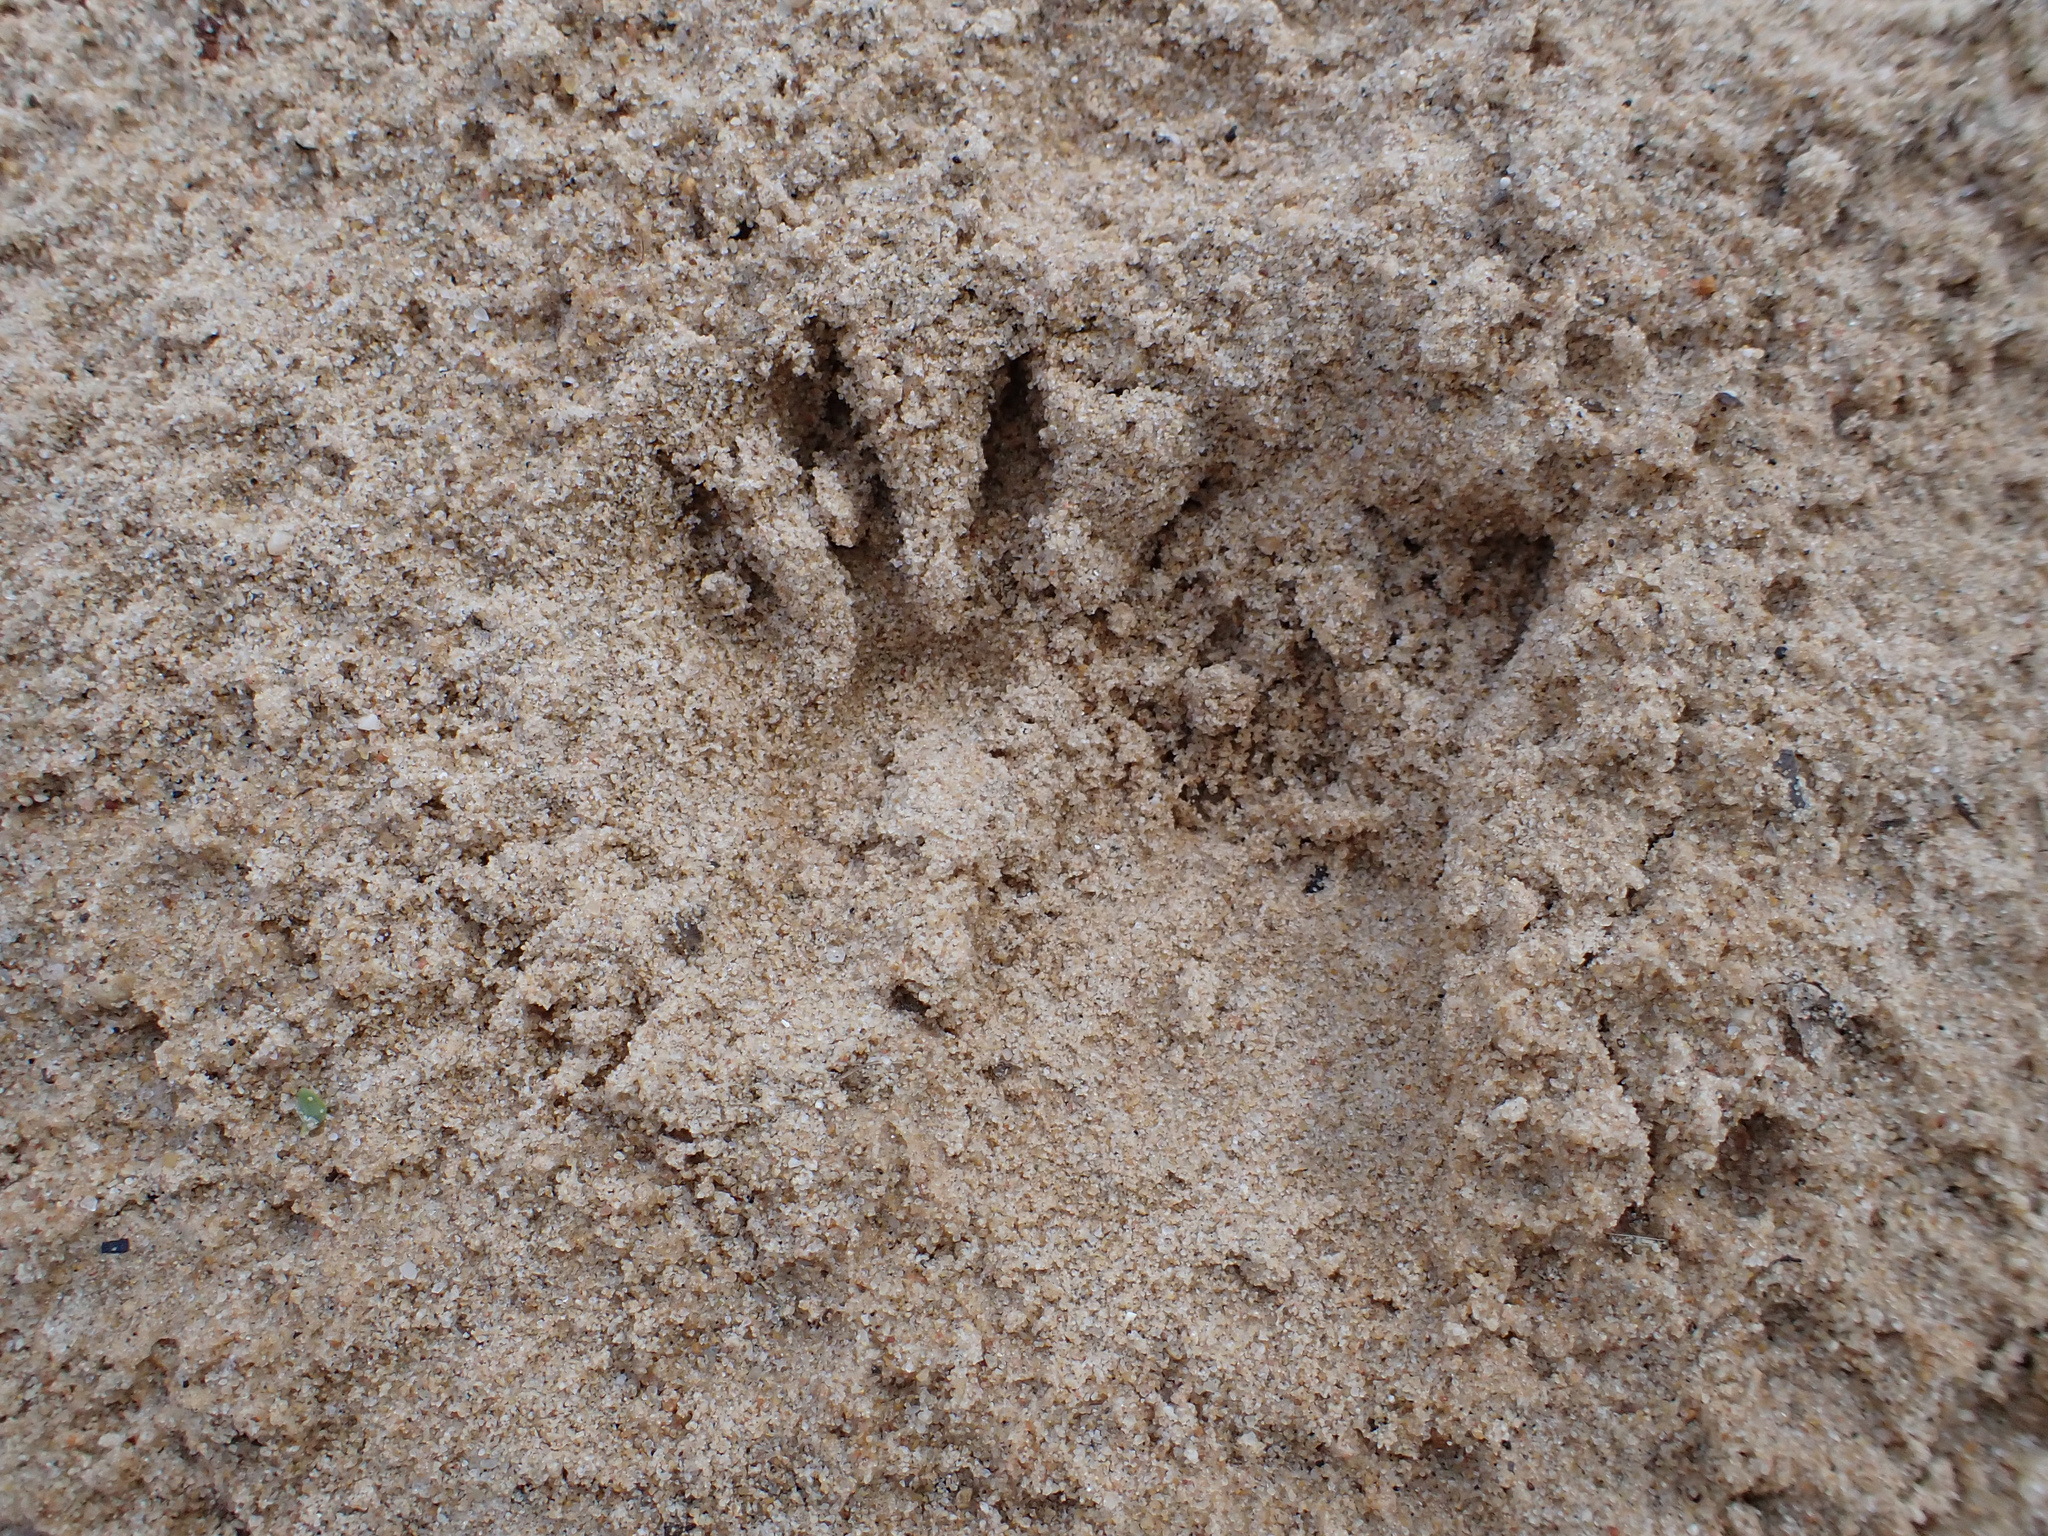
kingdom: Animalia
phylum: Chordata
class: Mammalia
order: Carnivora
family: Procyonidae
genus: Procyon
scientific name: Procyon lotor
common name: Raccoon
